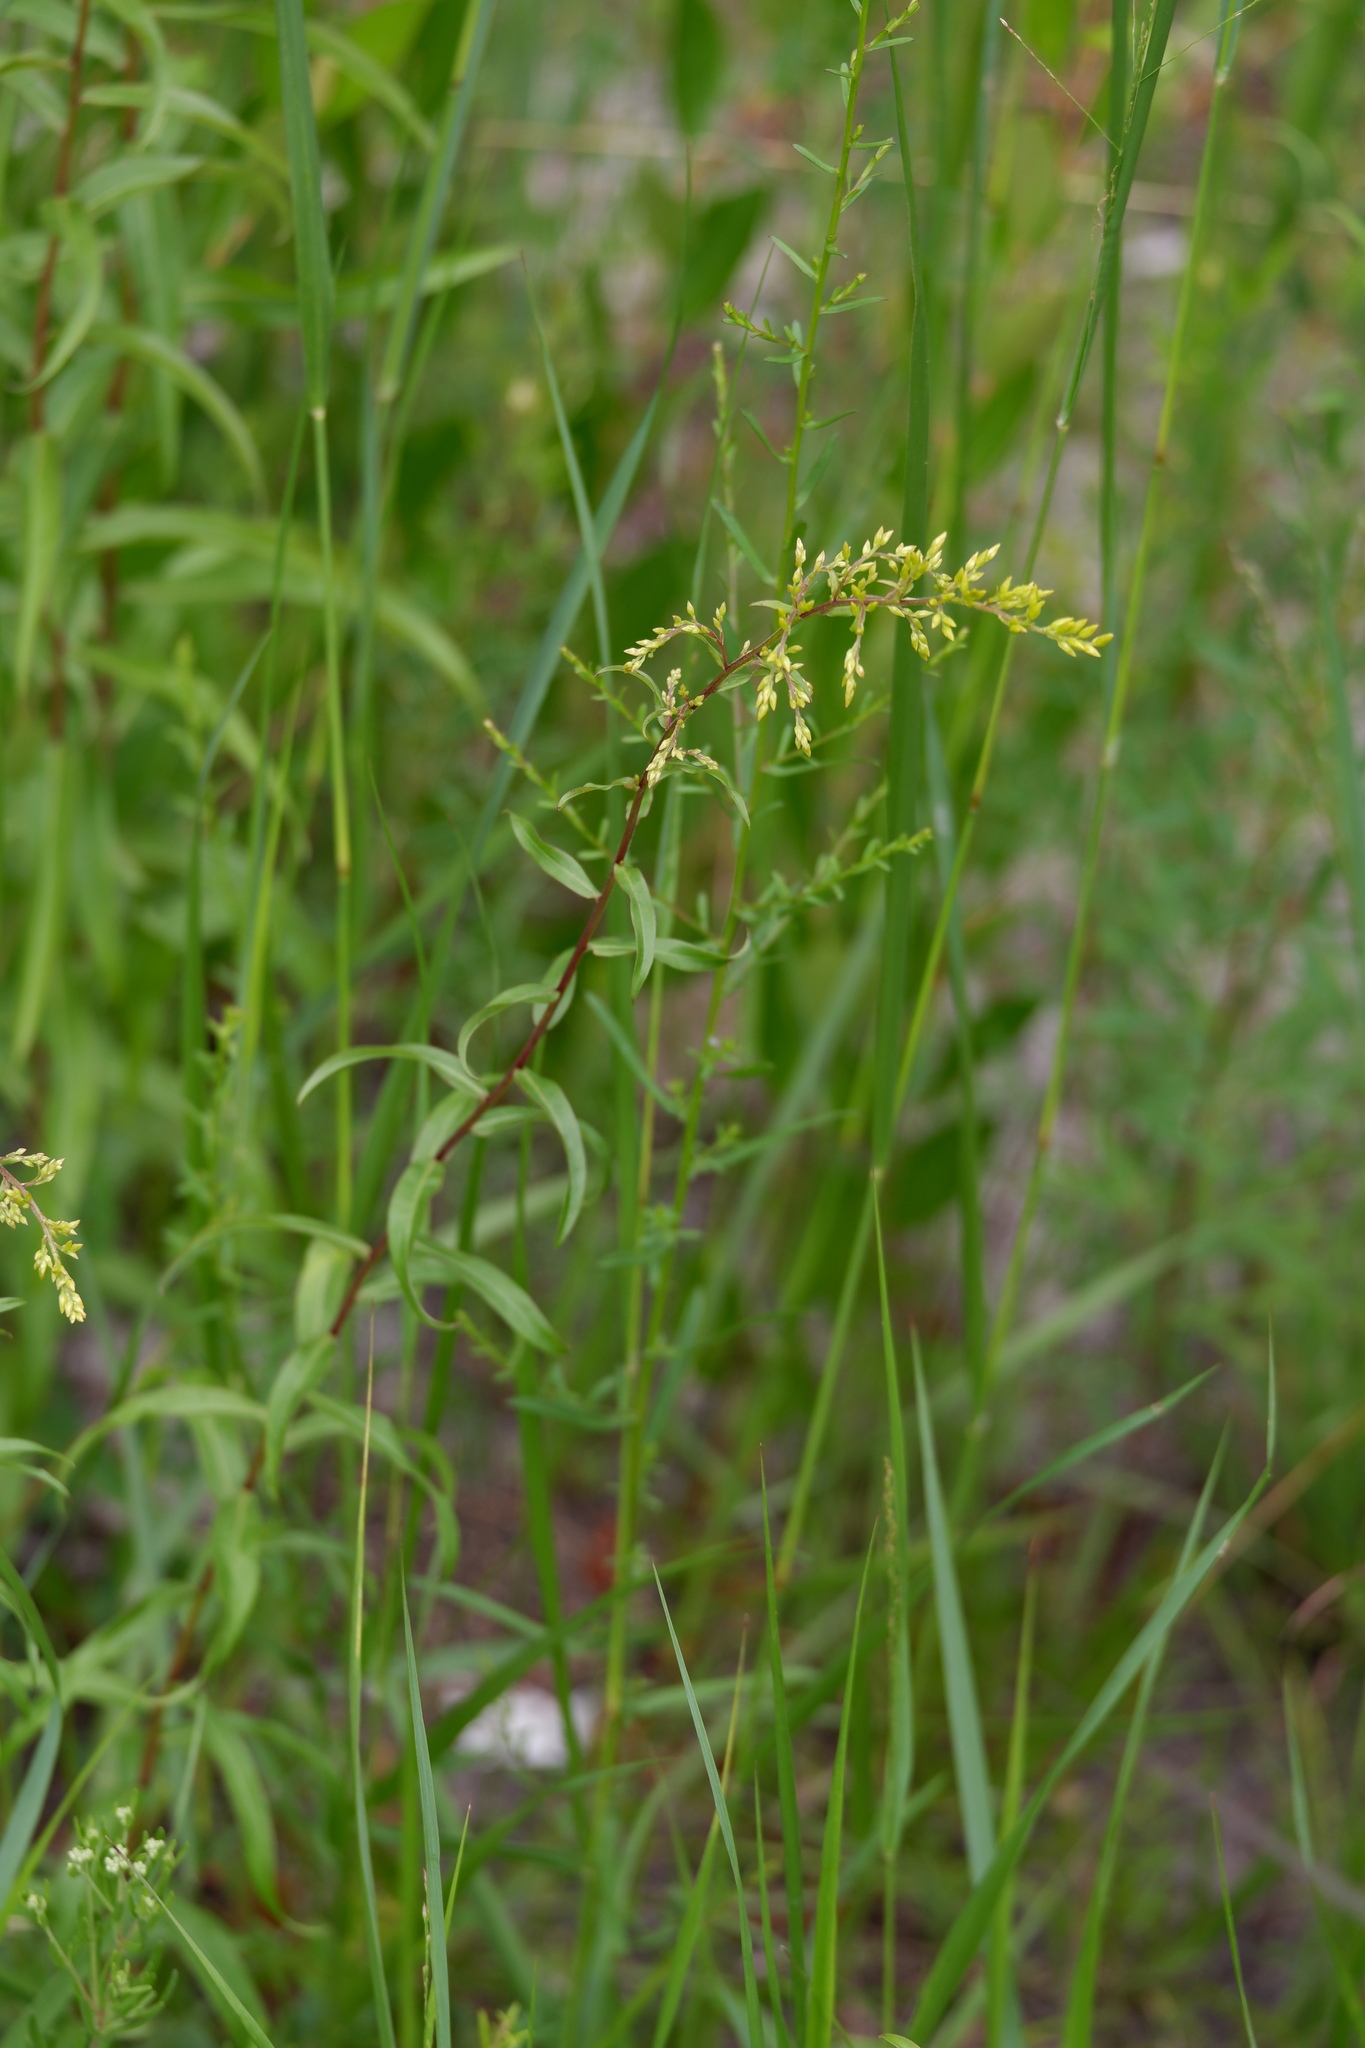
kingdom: Plantae
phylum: Tracheophyta
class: Magnoliopsida
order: Asterales
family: Asteraceae
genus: Solidago
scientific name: Solidago odora
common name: Anise-scented goldenrod
